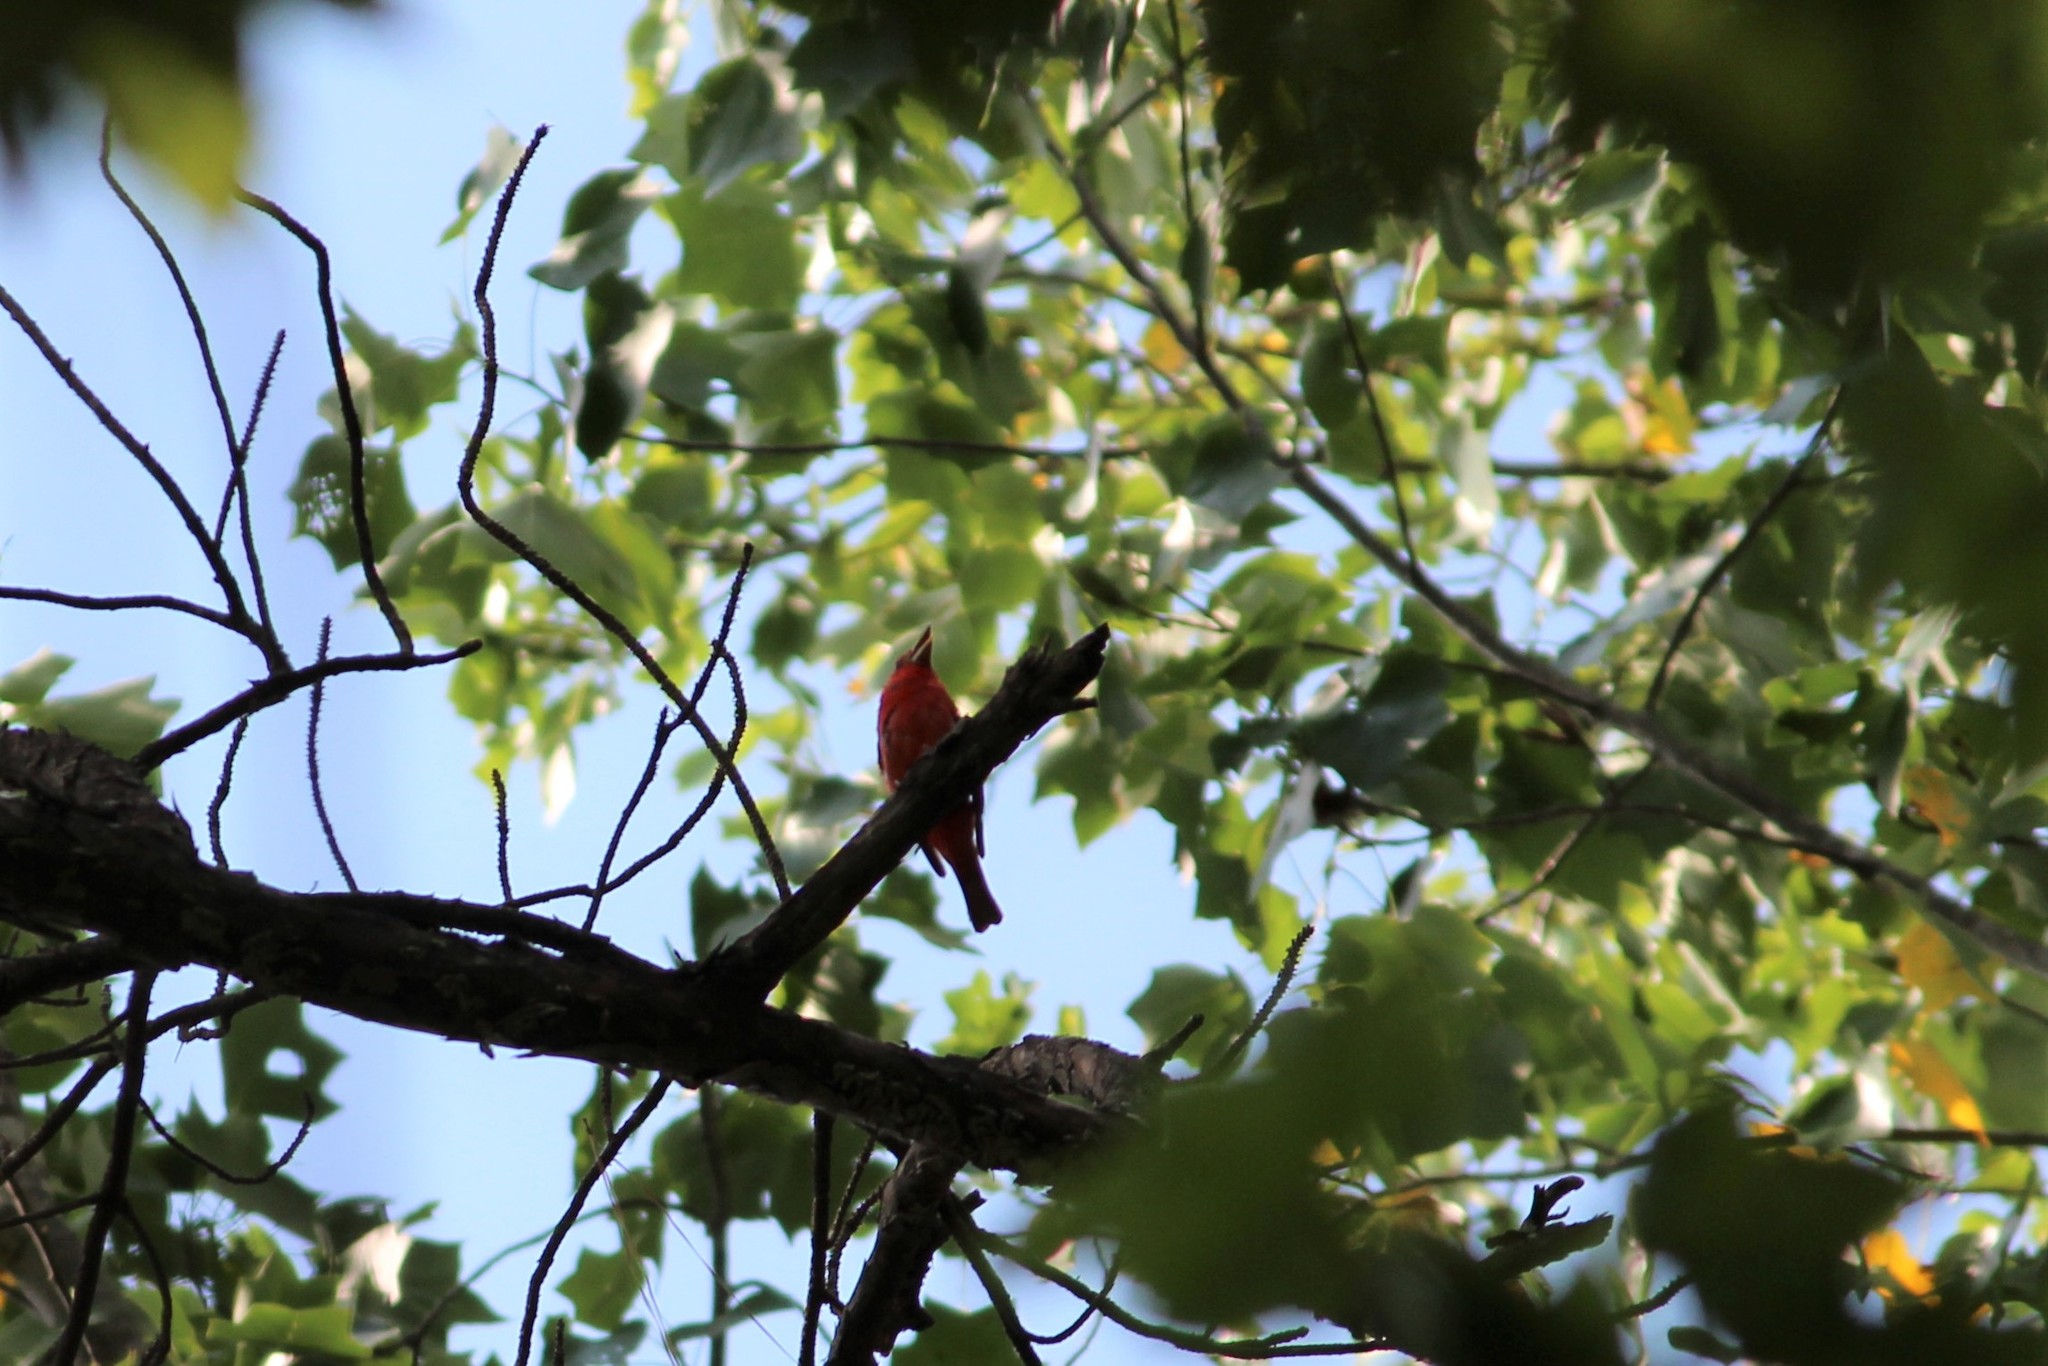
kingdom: Animalia
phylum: Chordata
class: Aves
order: Passeriformes
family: Cardinalidae
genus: Piranga
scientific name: Piranga rubra
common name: Summer tanager
